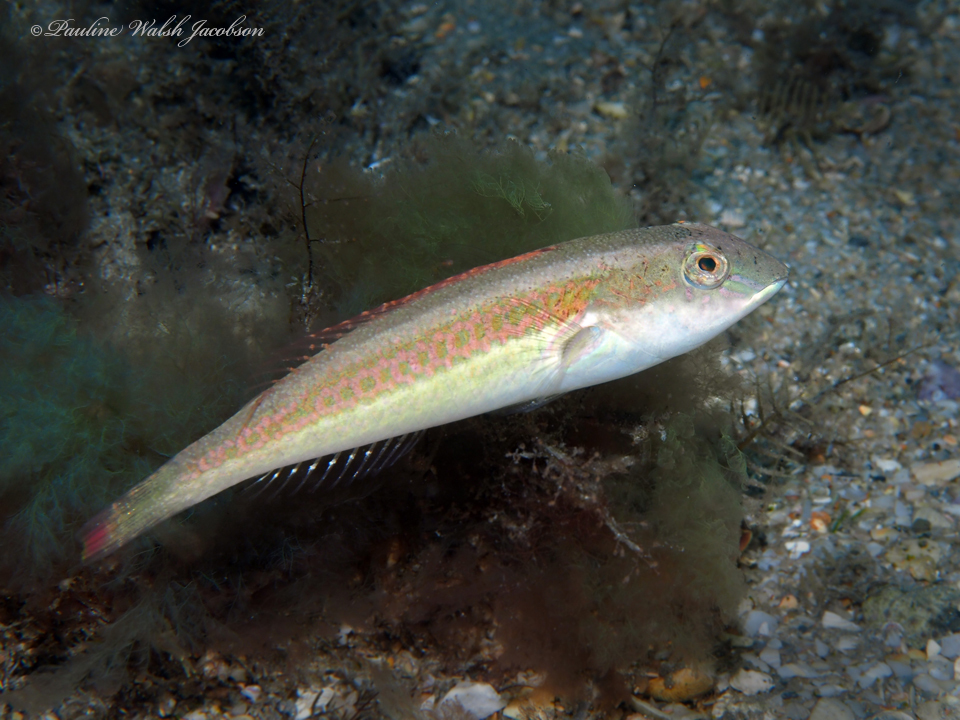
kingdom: Animalia
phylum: Chordata
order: Perciformes
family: Scaridae
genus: Cryptotomus
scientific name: Cryptotomus roseus
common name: Bluelip parrotfish
